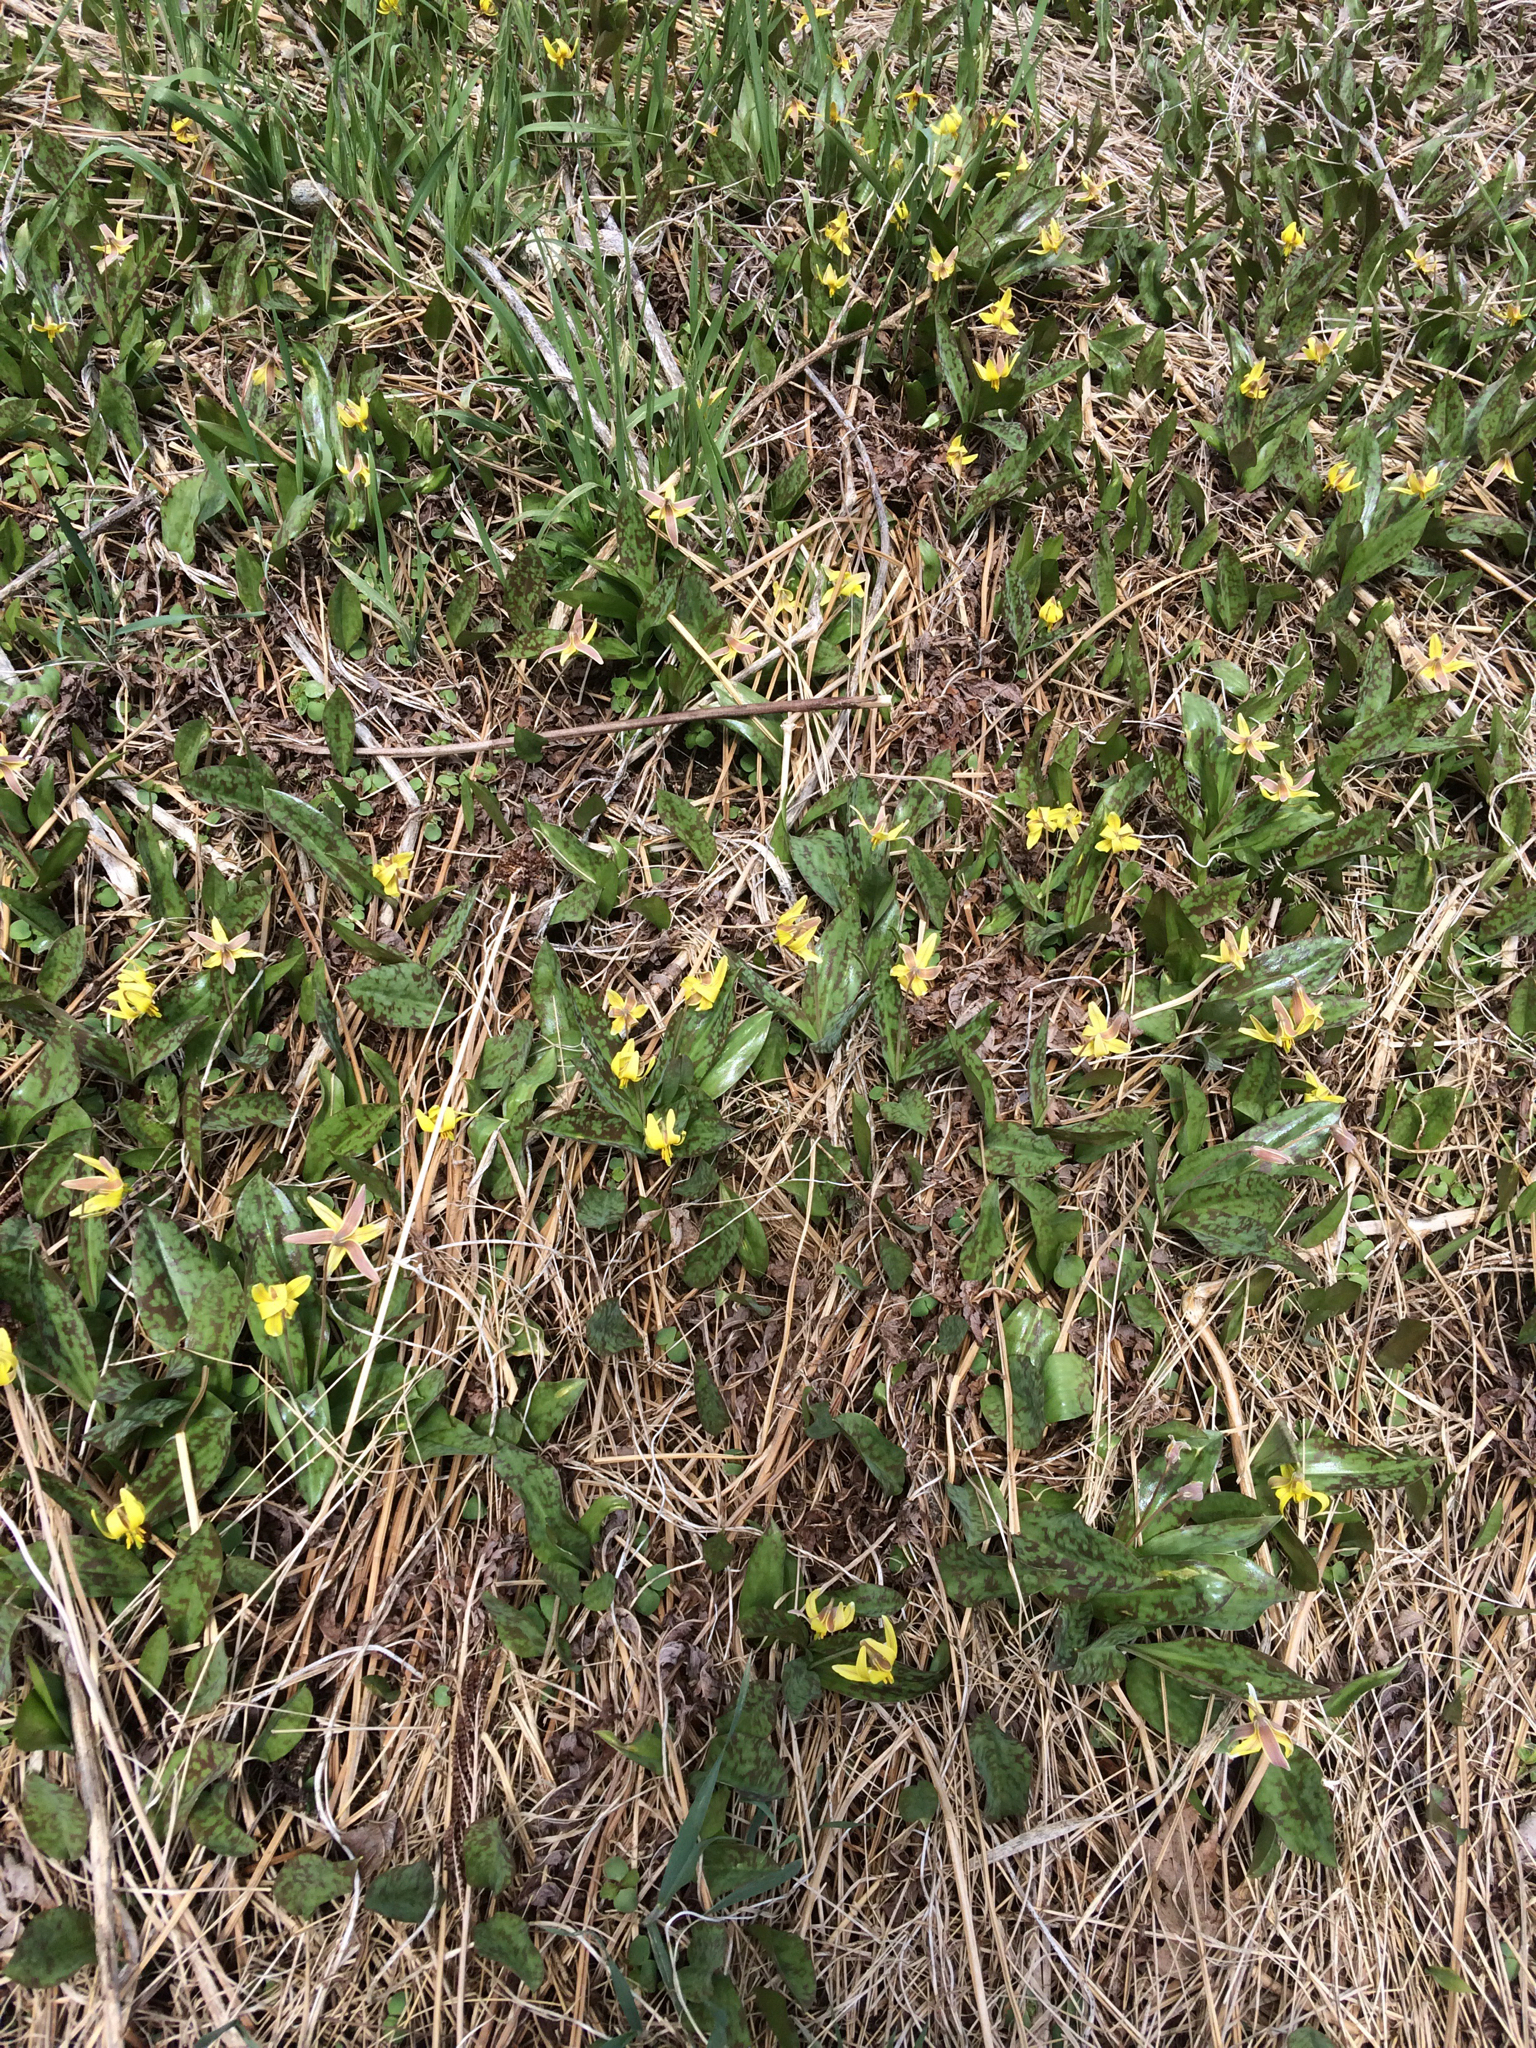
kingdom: Plantae
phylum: Tracheophyta
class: Liliopsida
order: Liliales
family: Liliaceae
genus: Erythronium
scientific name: Erythronium americanum
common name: Yellow adder's-tongue
